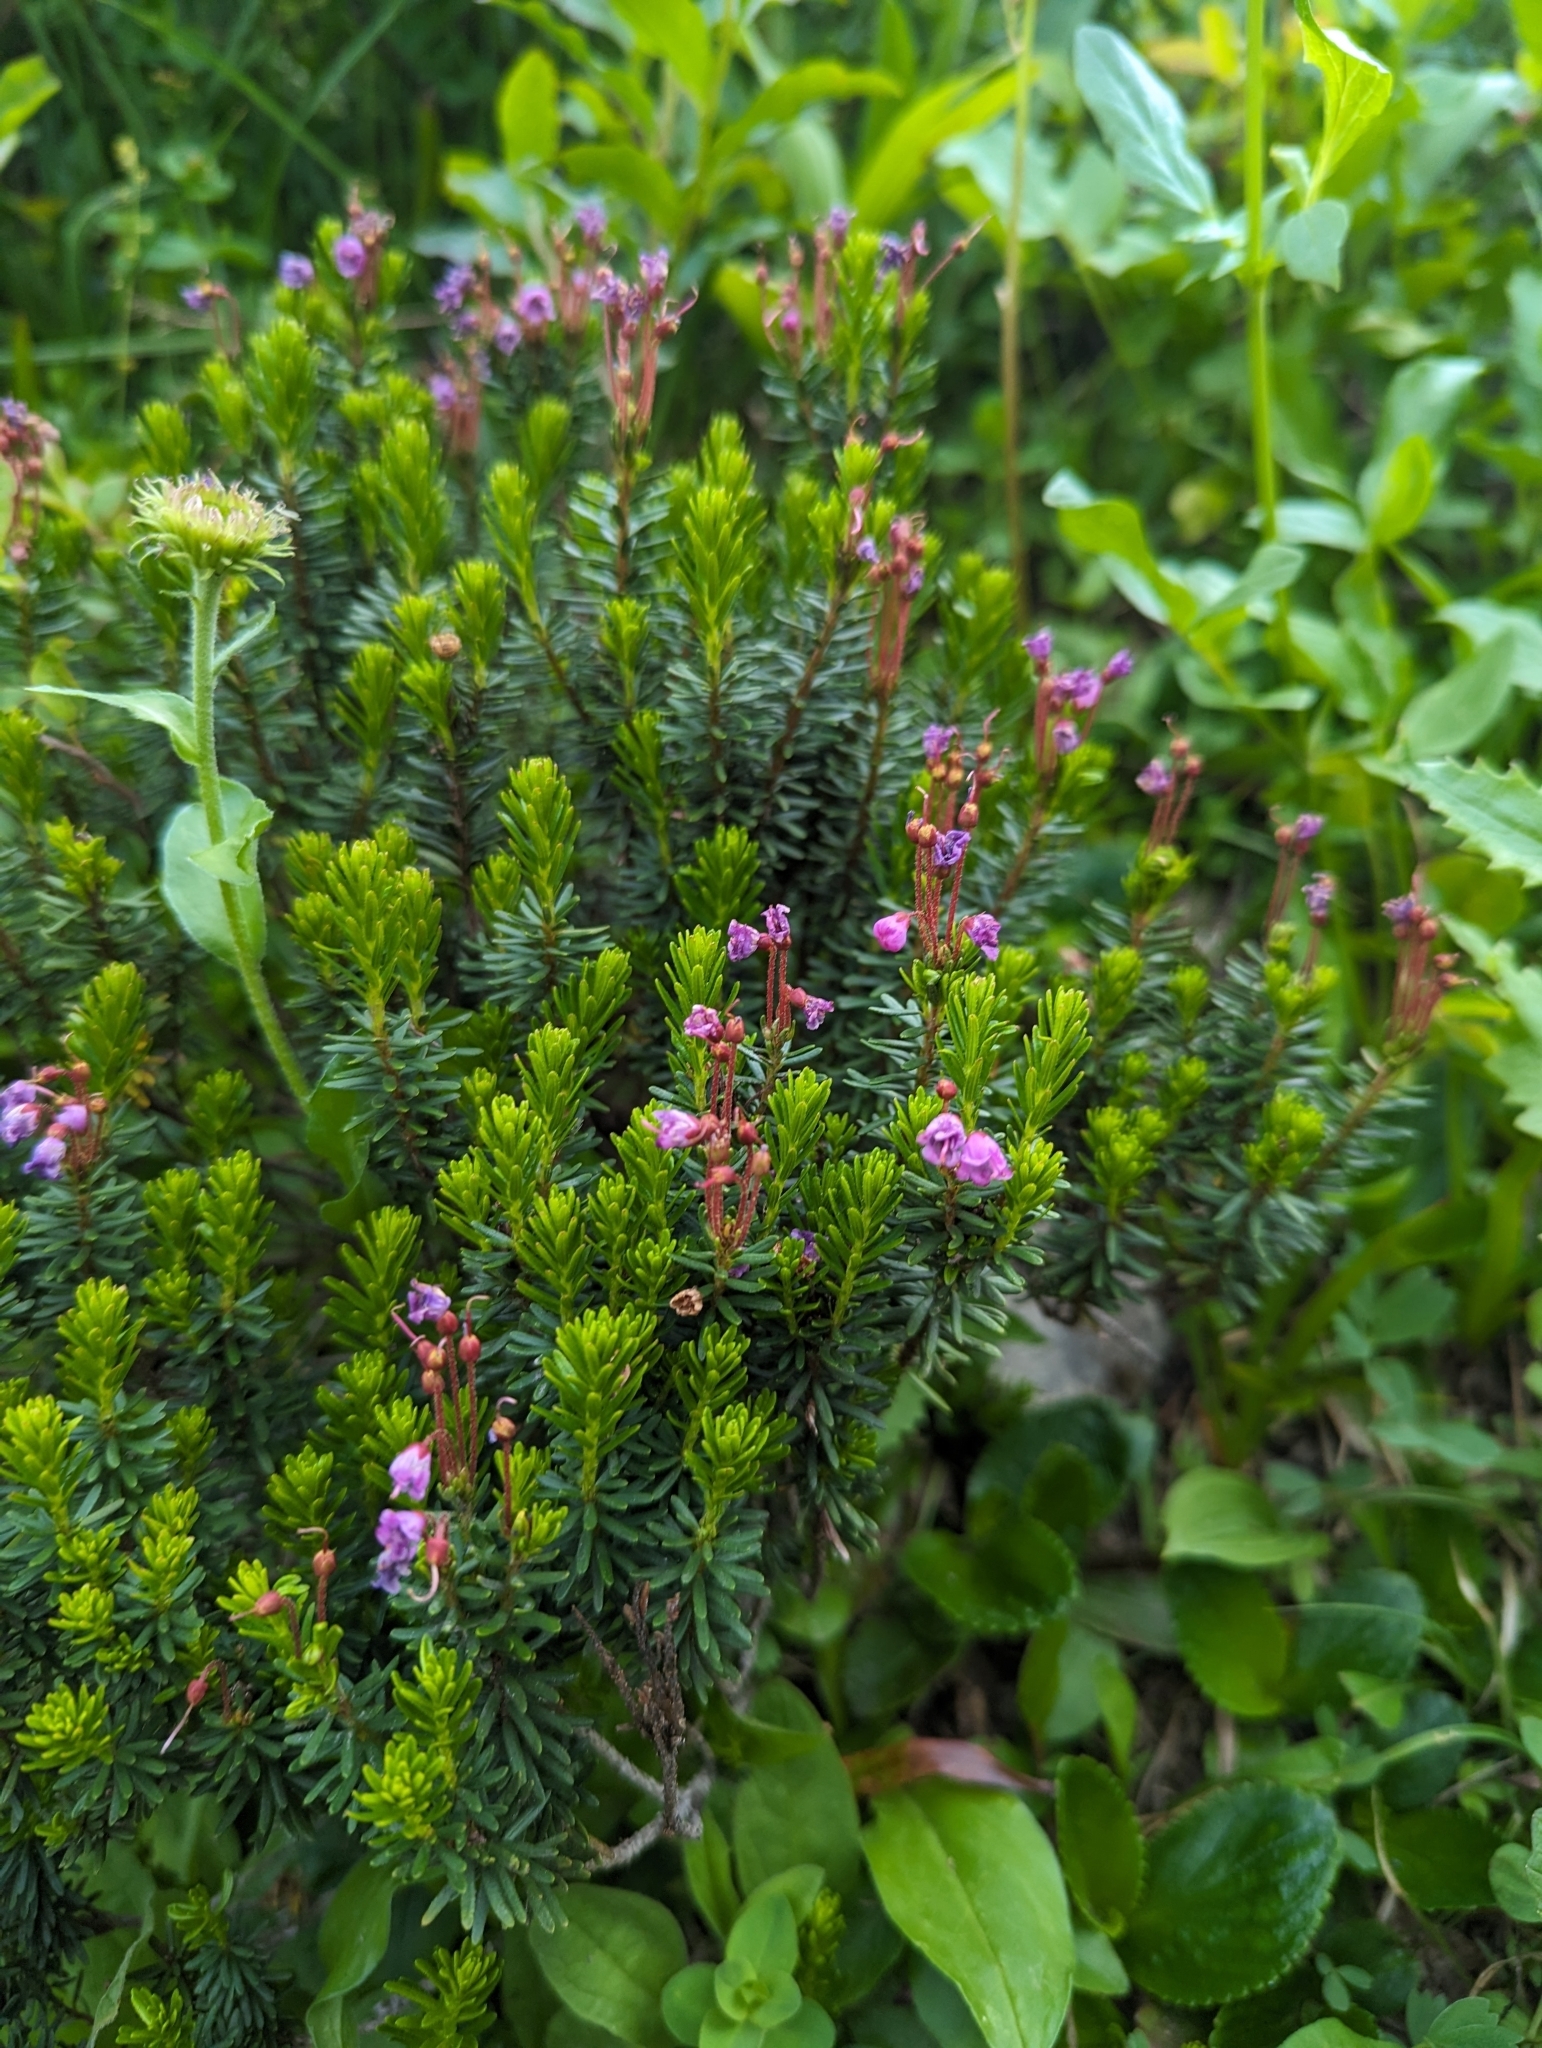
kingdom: Plantae
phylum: Tracheophyta
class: Magnoliopsida
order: Ericales
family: Ericaceae
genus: Phyllodoce
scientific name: Phyllodoce empetriformis
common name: Pink mountain heather
